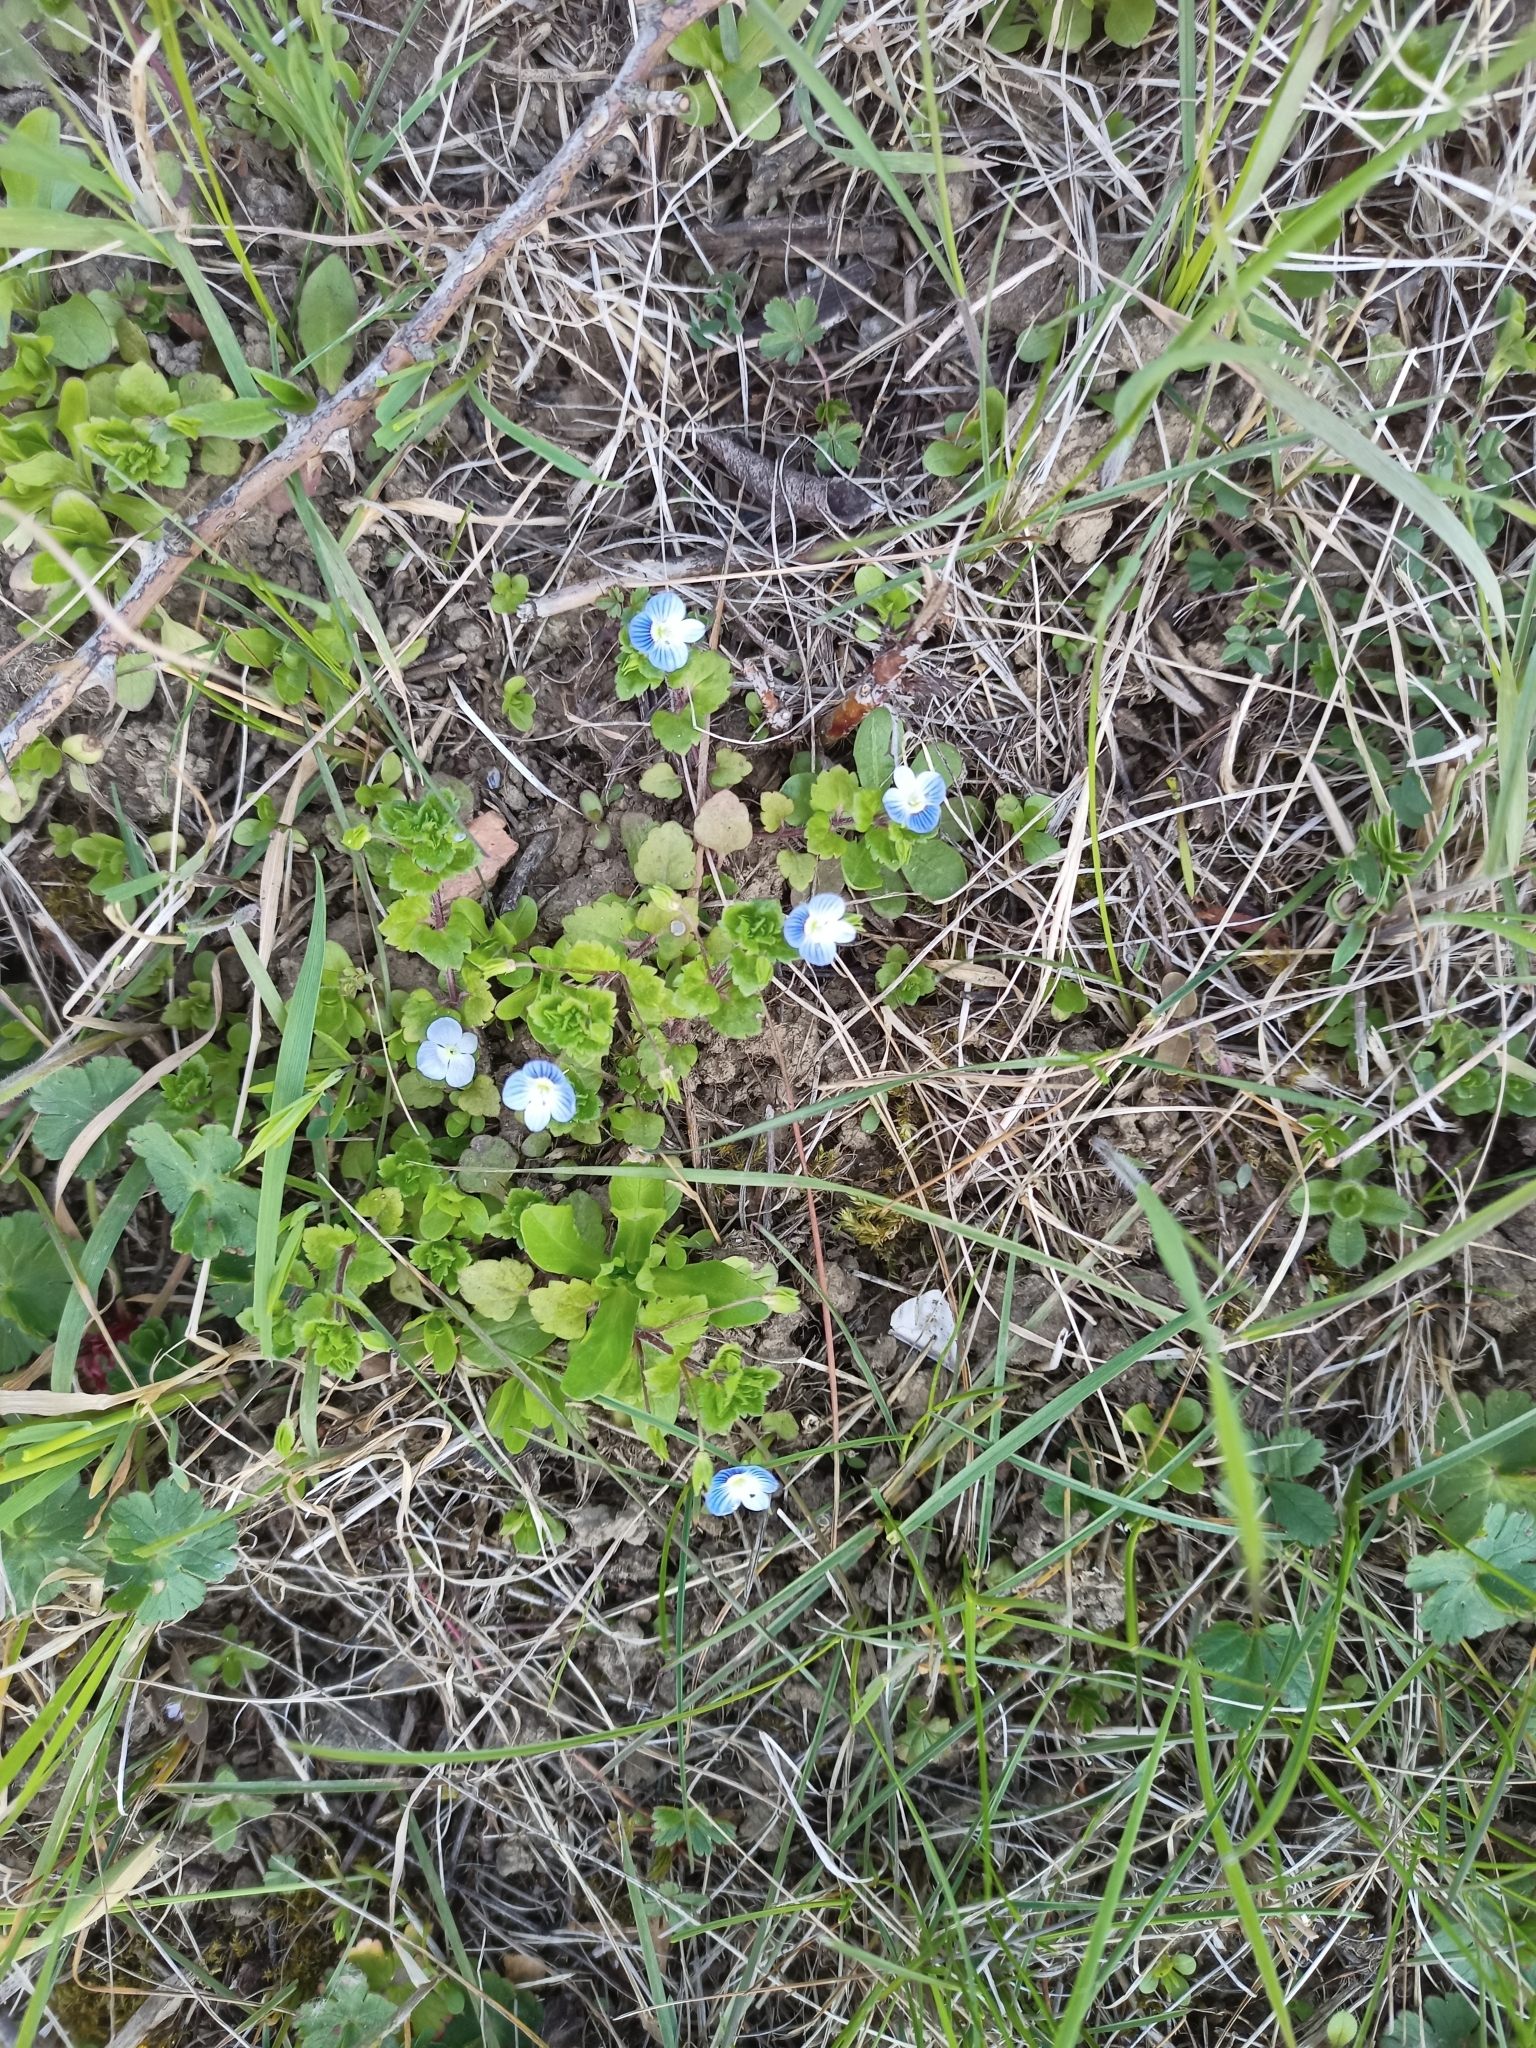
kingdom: Plantae
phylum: Tracheophyta
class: Magnoliopsida
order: Lamiales
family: Plantaginaceae
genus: Veronica
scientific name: Veronica persica
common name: Common field-speedwell
